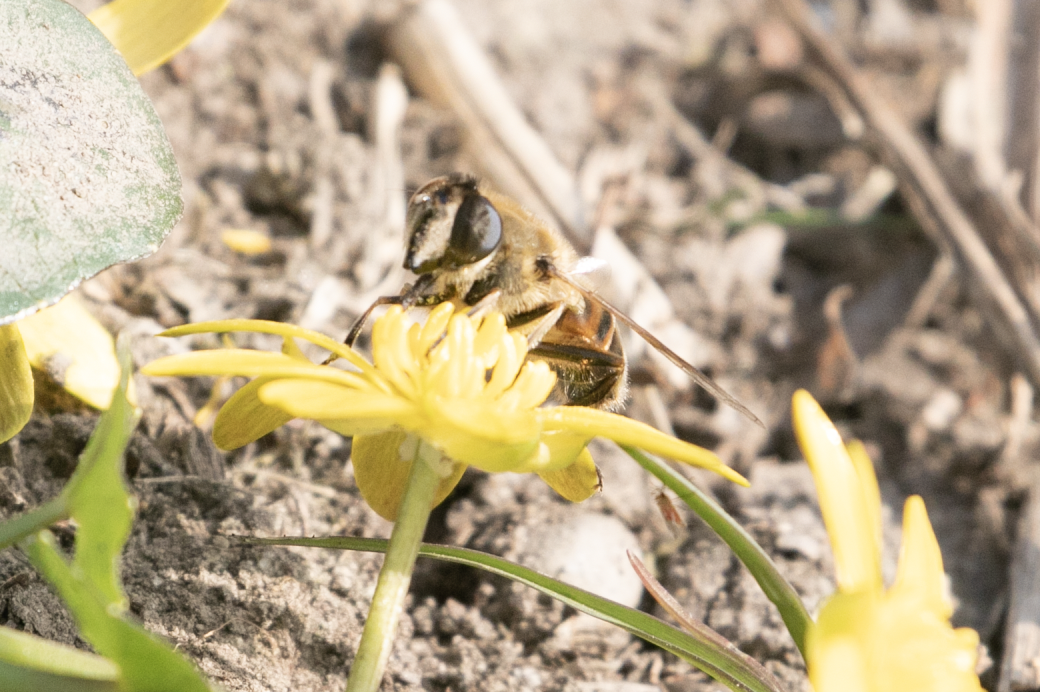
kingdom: Animalia
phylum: Arthropoda
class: Insecta
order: Diptera
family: Syrphidae
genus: Eristalis
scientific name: Eristalis tenax
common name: Drone fly
